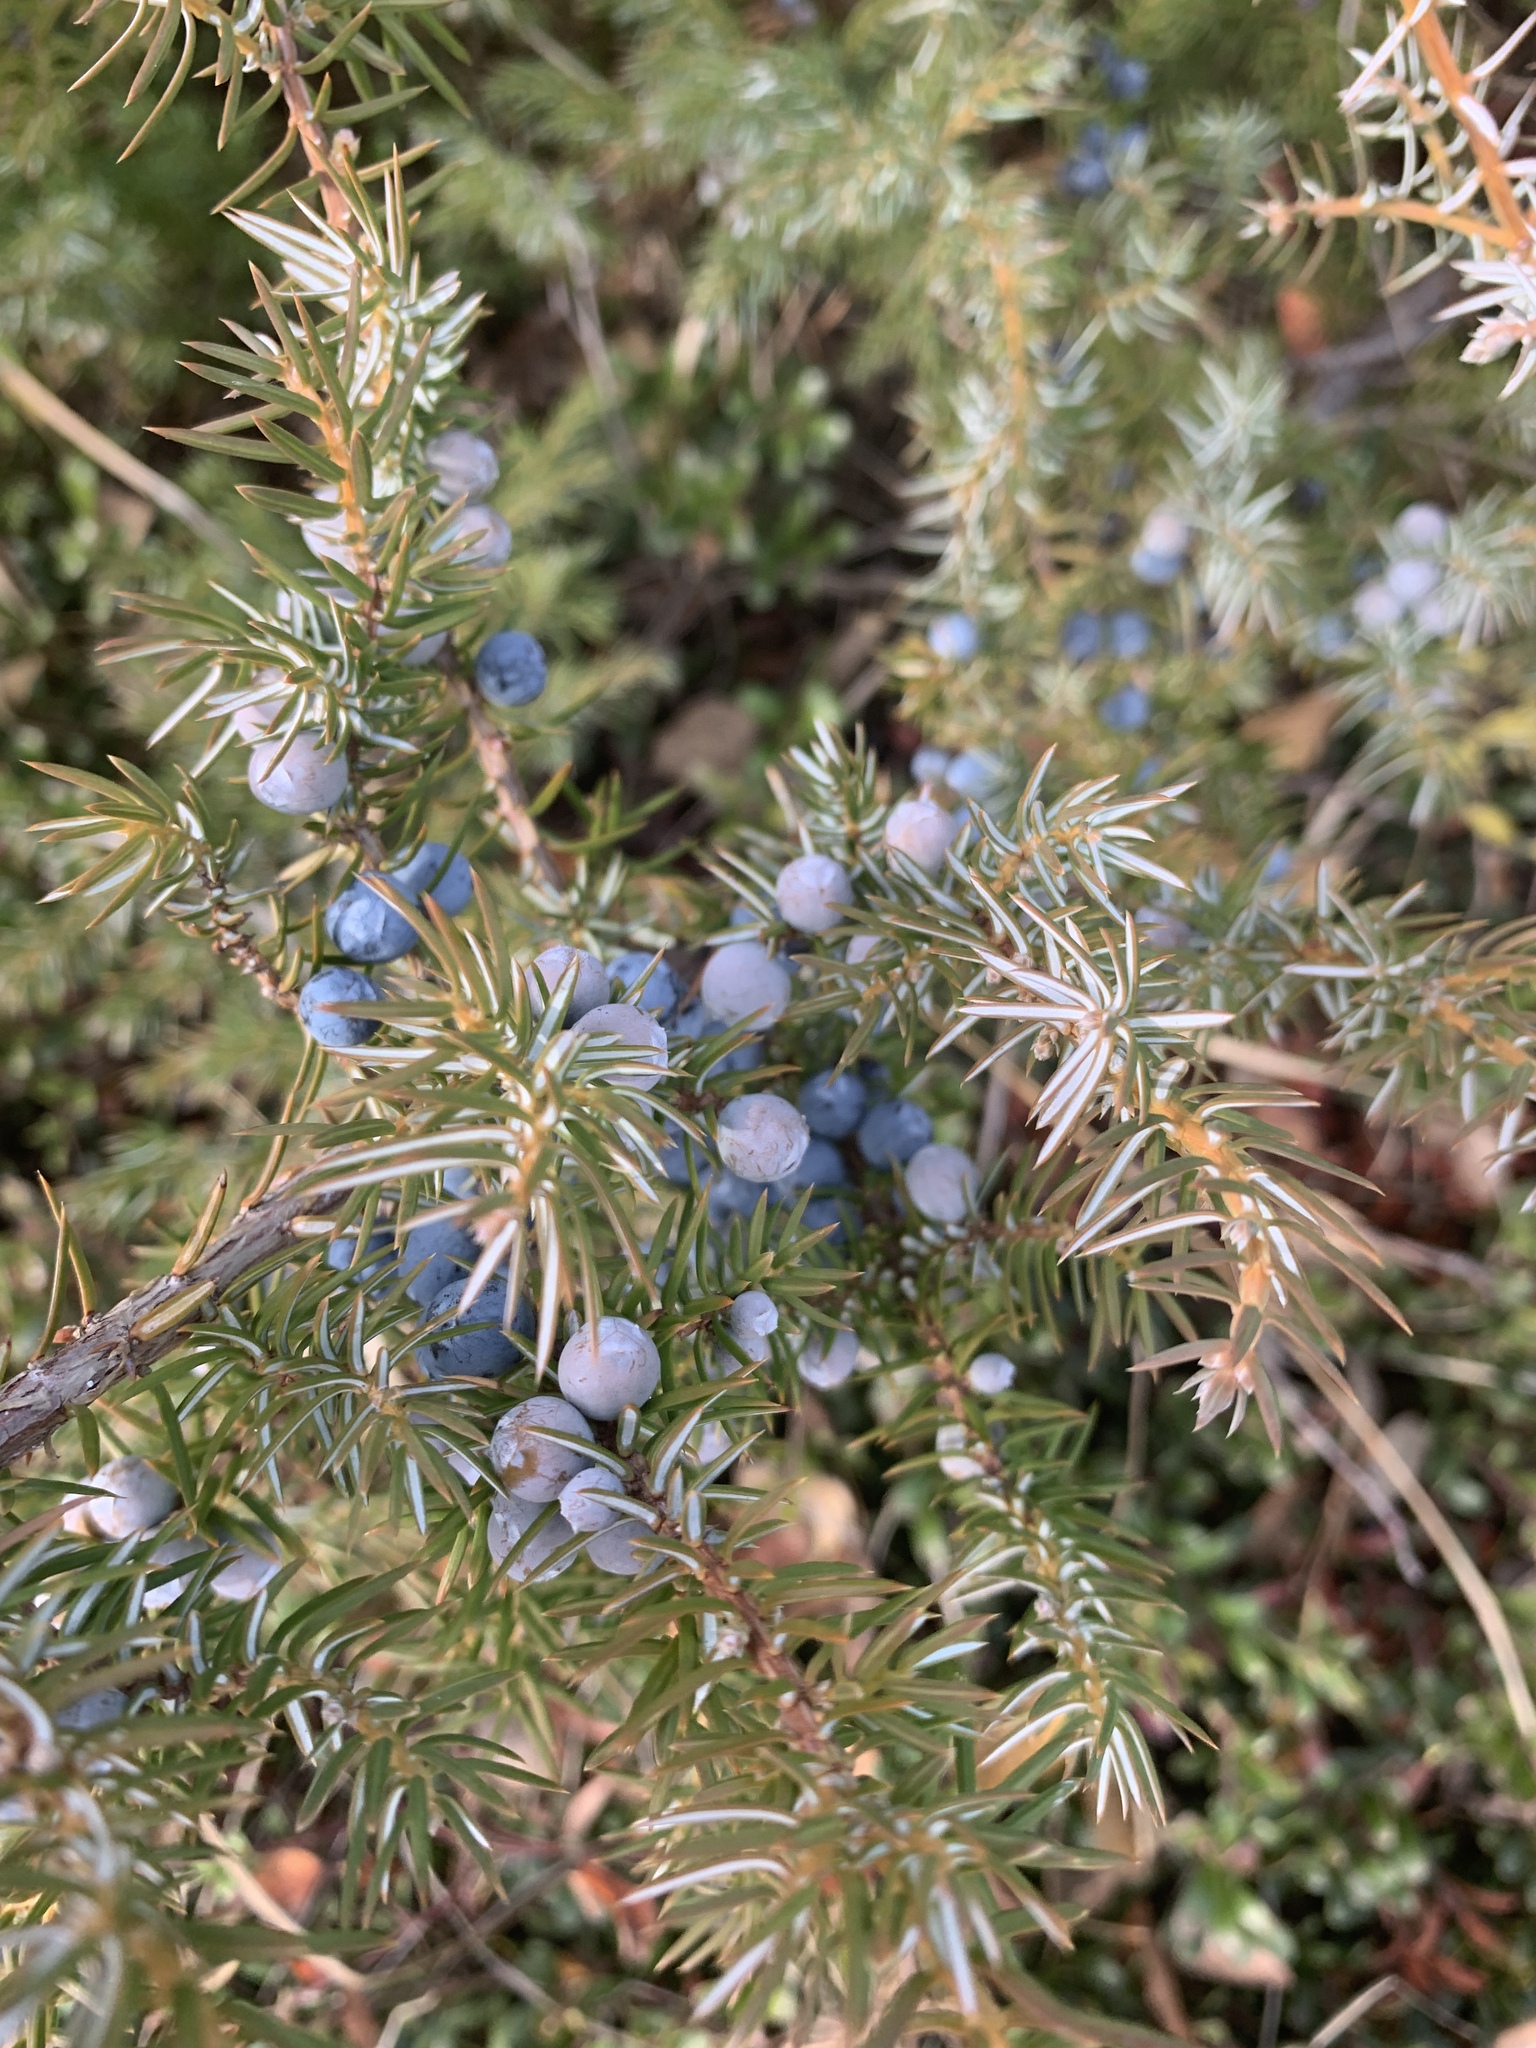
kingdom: Plantae
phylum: Tracheophyta
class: Pinopsida
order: Pinales
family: Cupressaceae
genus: Juniperus
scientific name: Juniperus communis
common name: Common juniper
